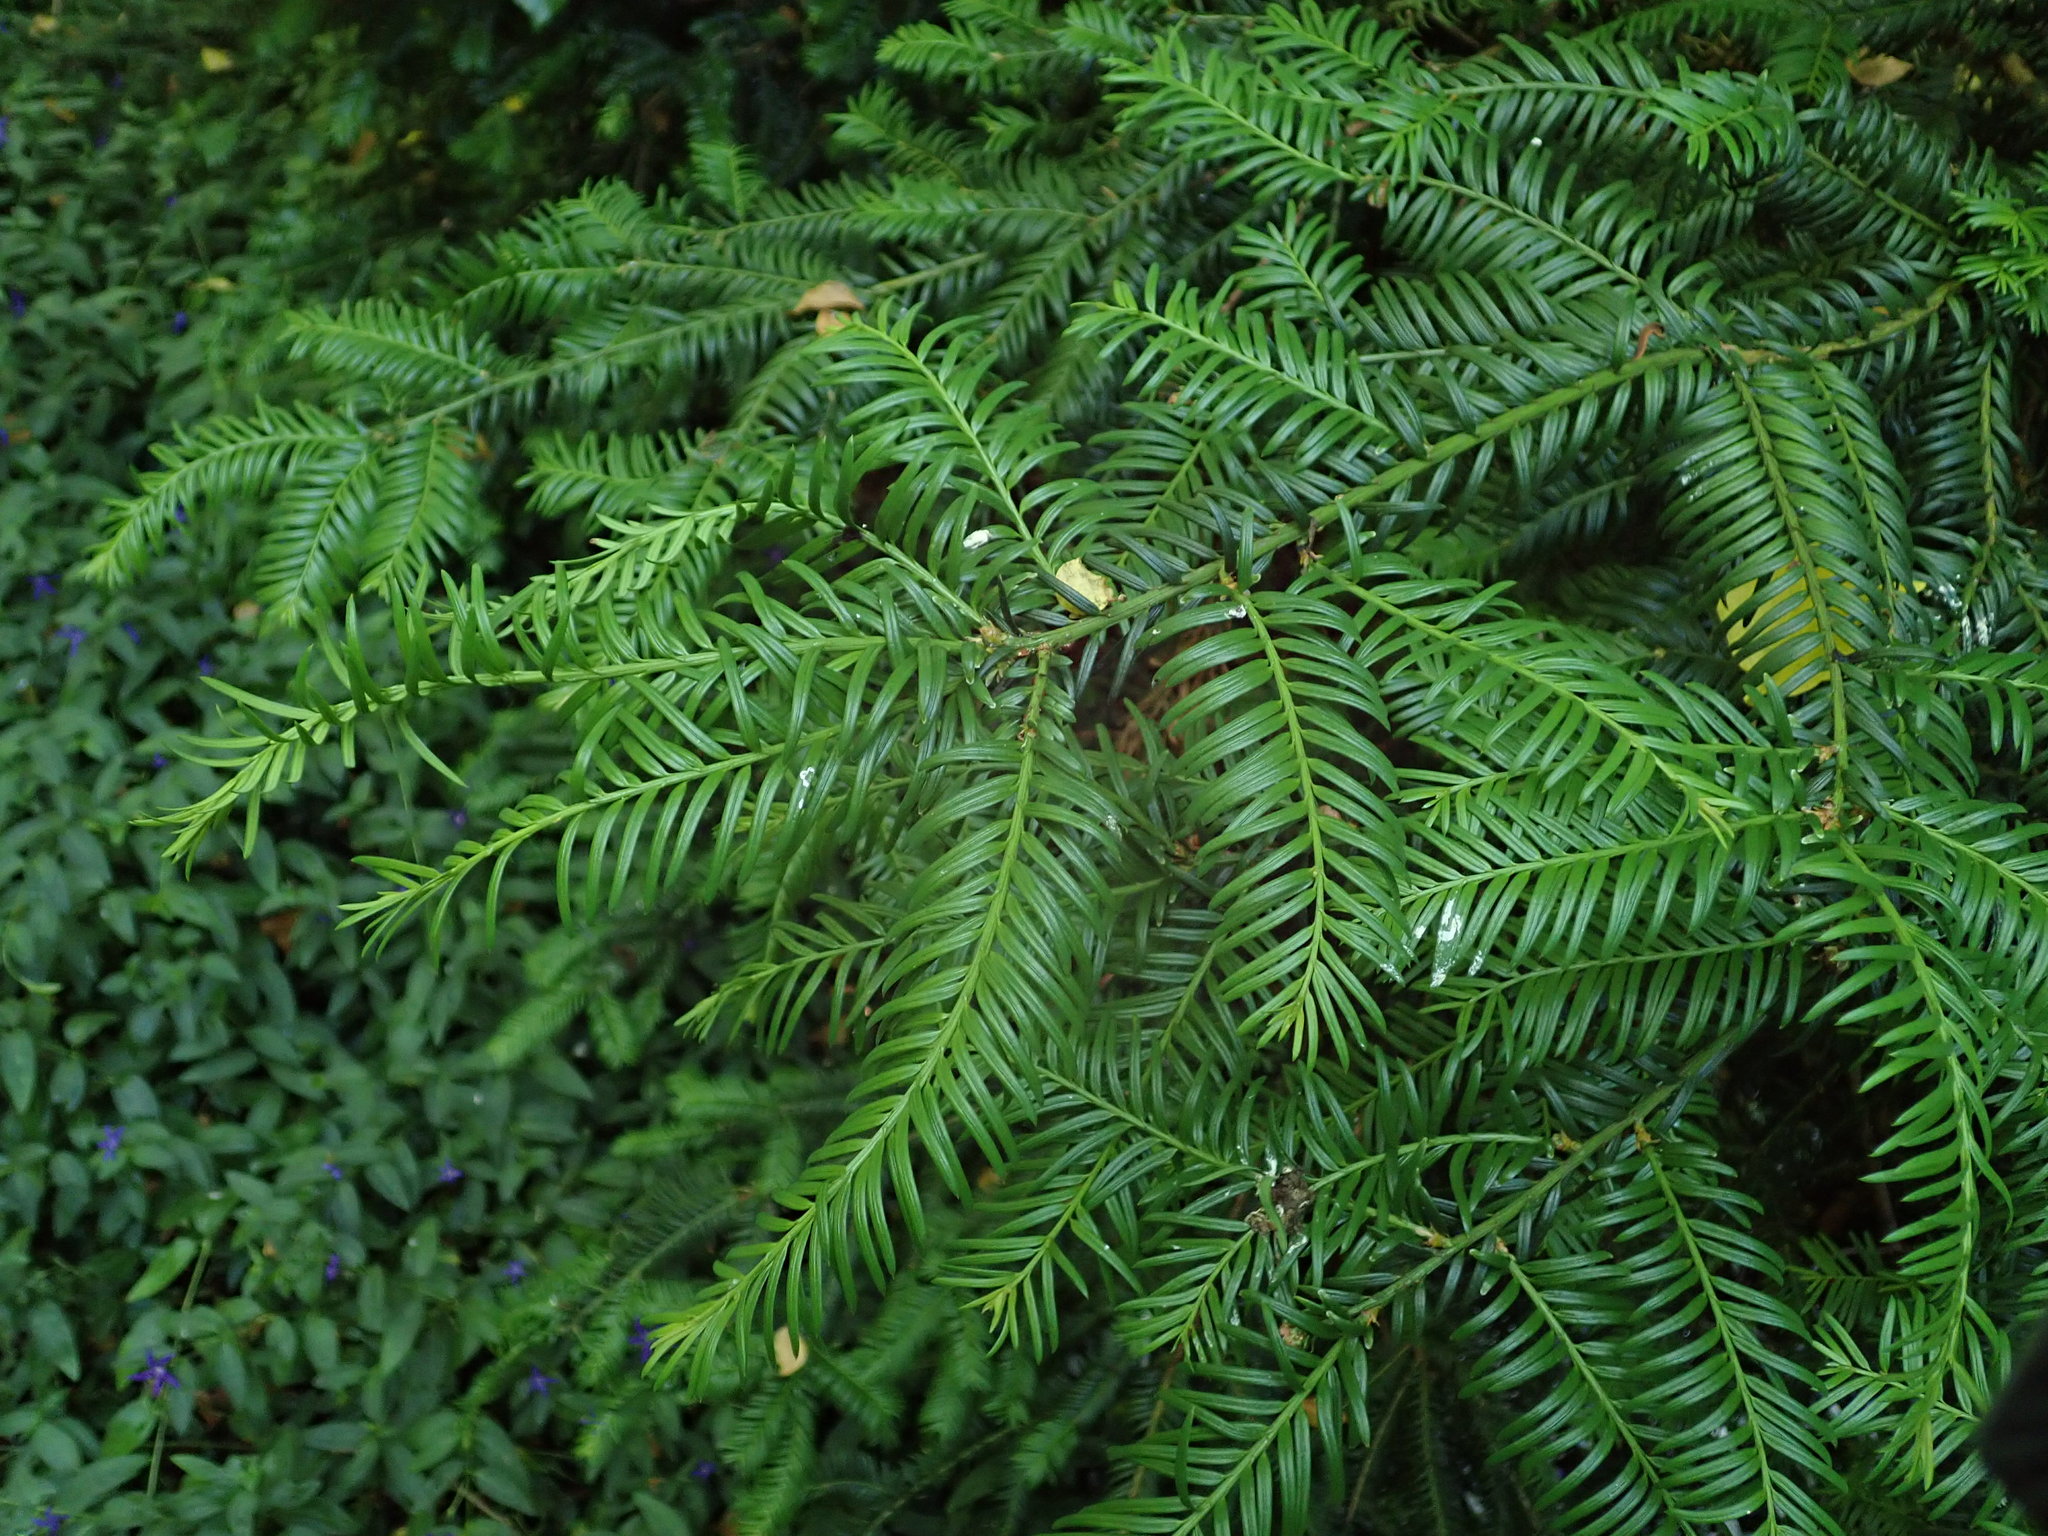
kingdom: Plantae
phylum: Tracheophyta
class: Pinopsida
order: Pinales
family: Taxaceae
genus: Taxus
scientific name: Taxus baccata
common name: Yew
